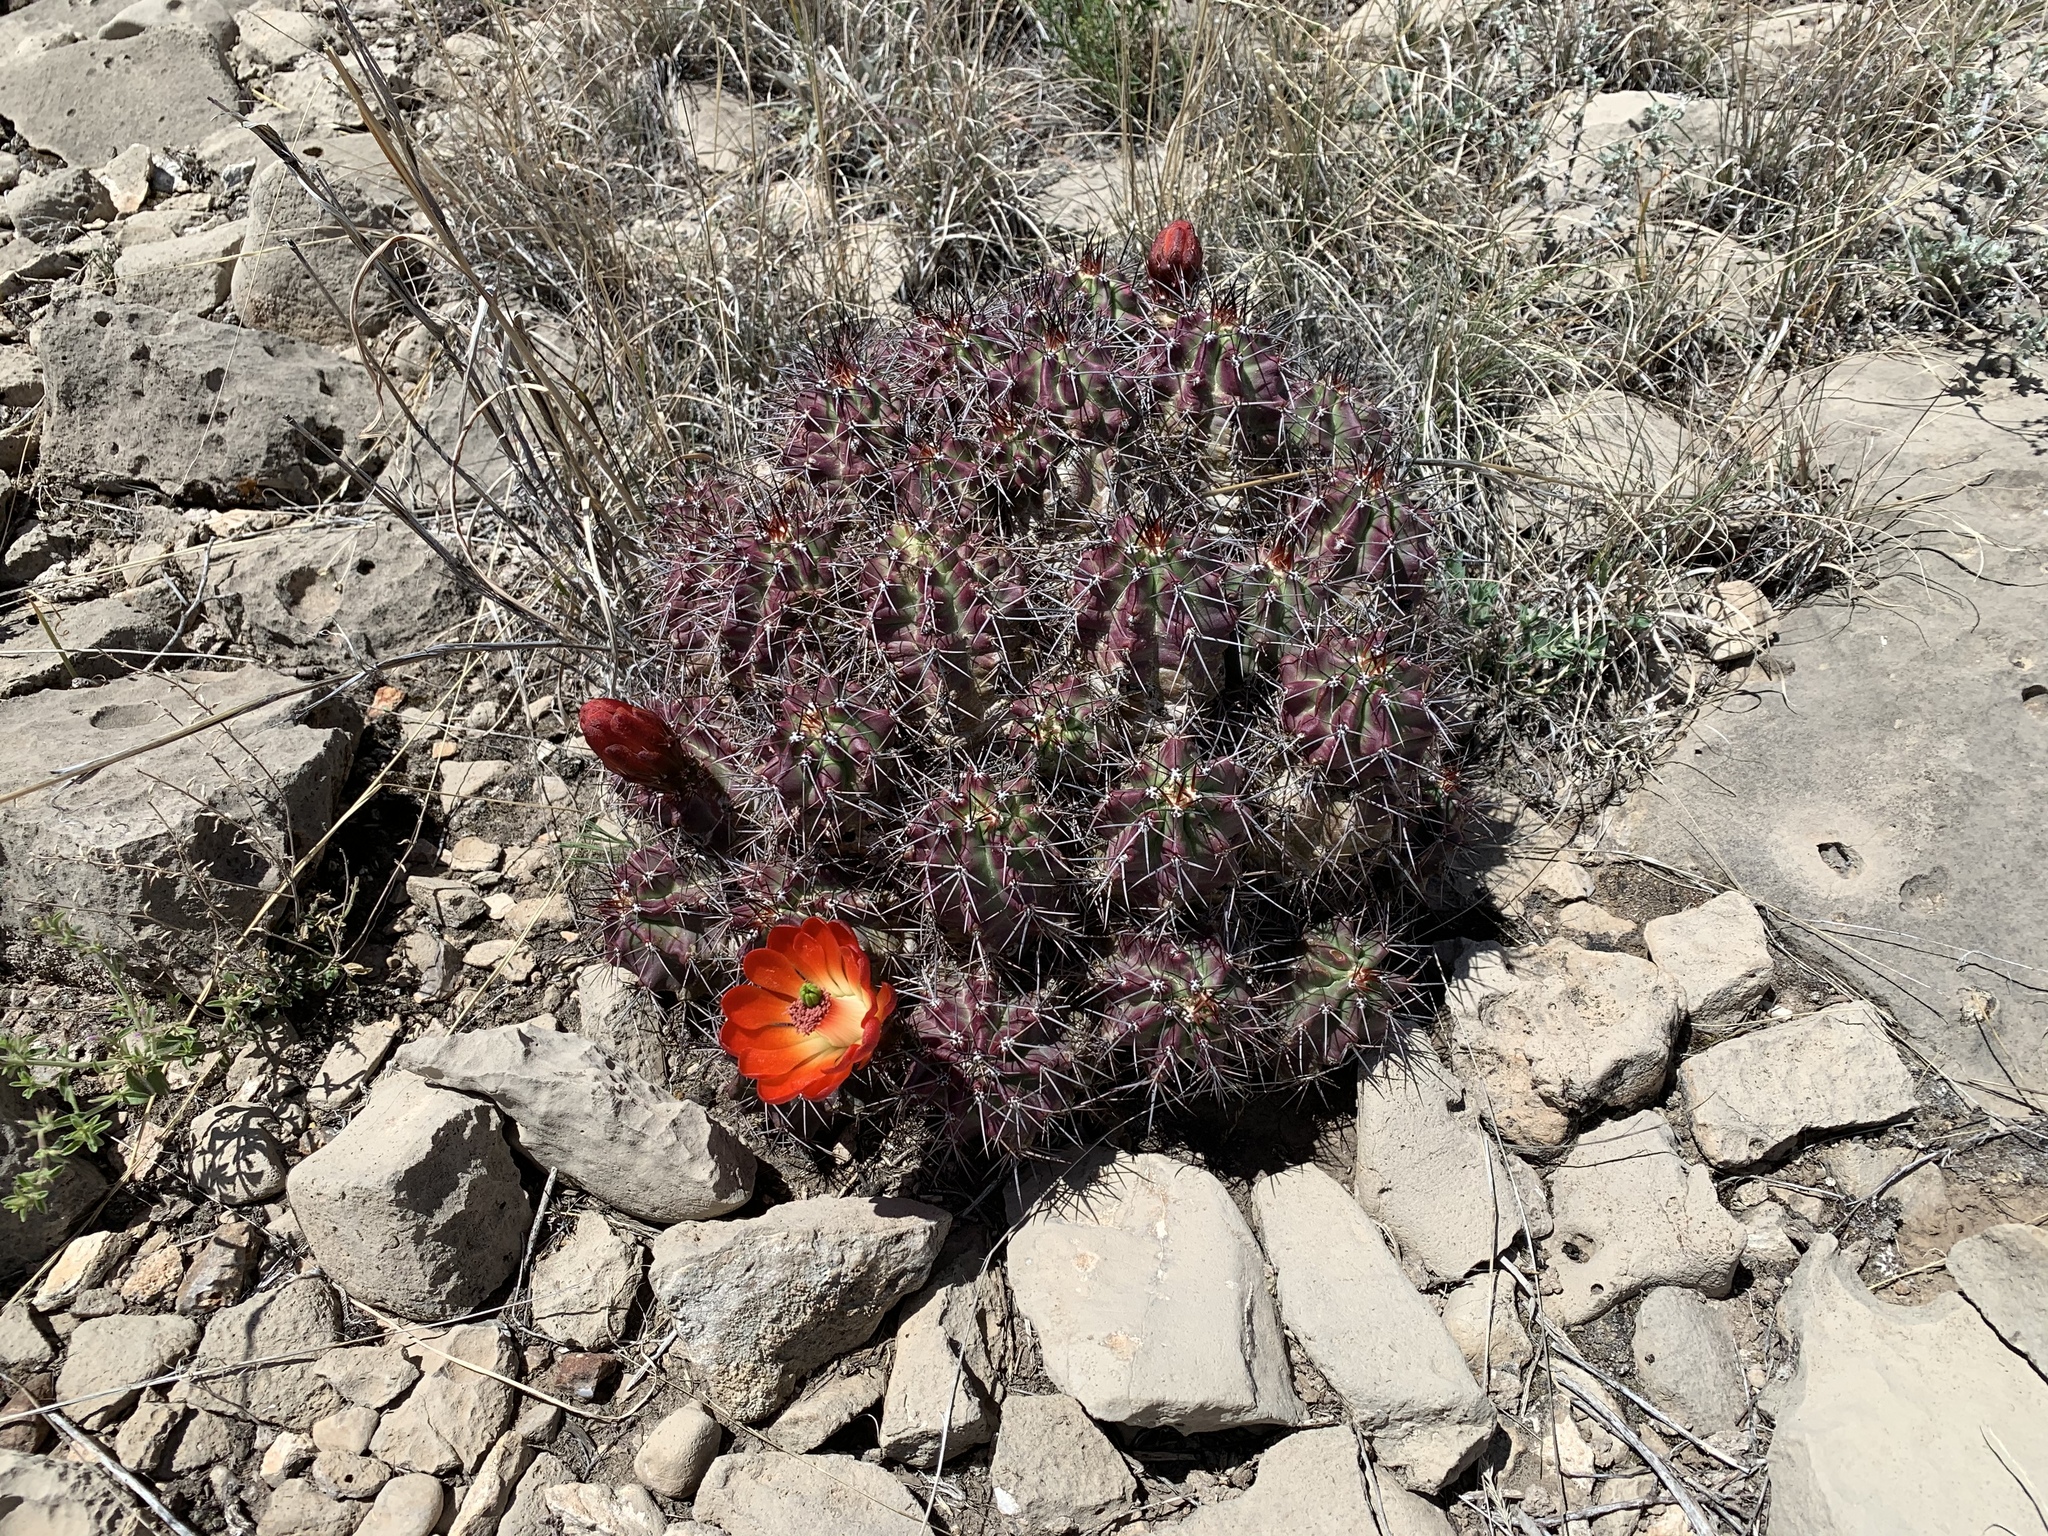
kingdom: Plantae
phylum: Tracheophyta
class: Magnoliopsida
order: Caryophyllales
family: Cactaceae
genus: Echinocereus
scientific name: Echinocereus coccineus
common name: Scarlet hedgehog cactus
